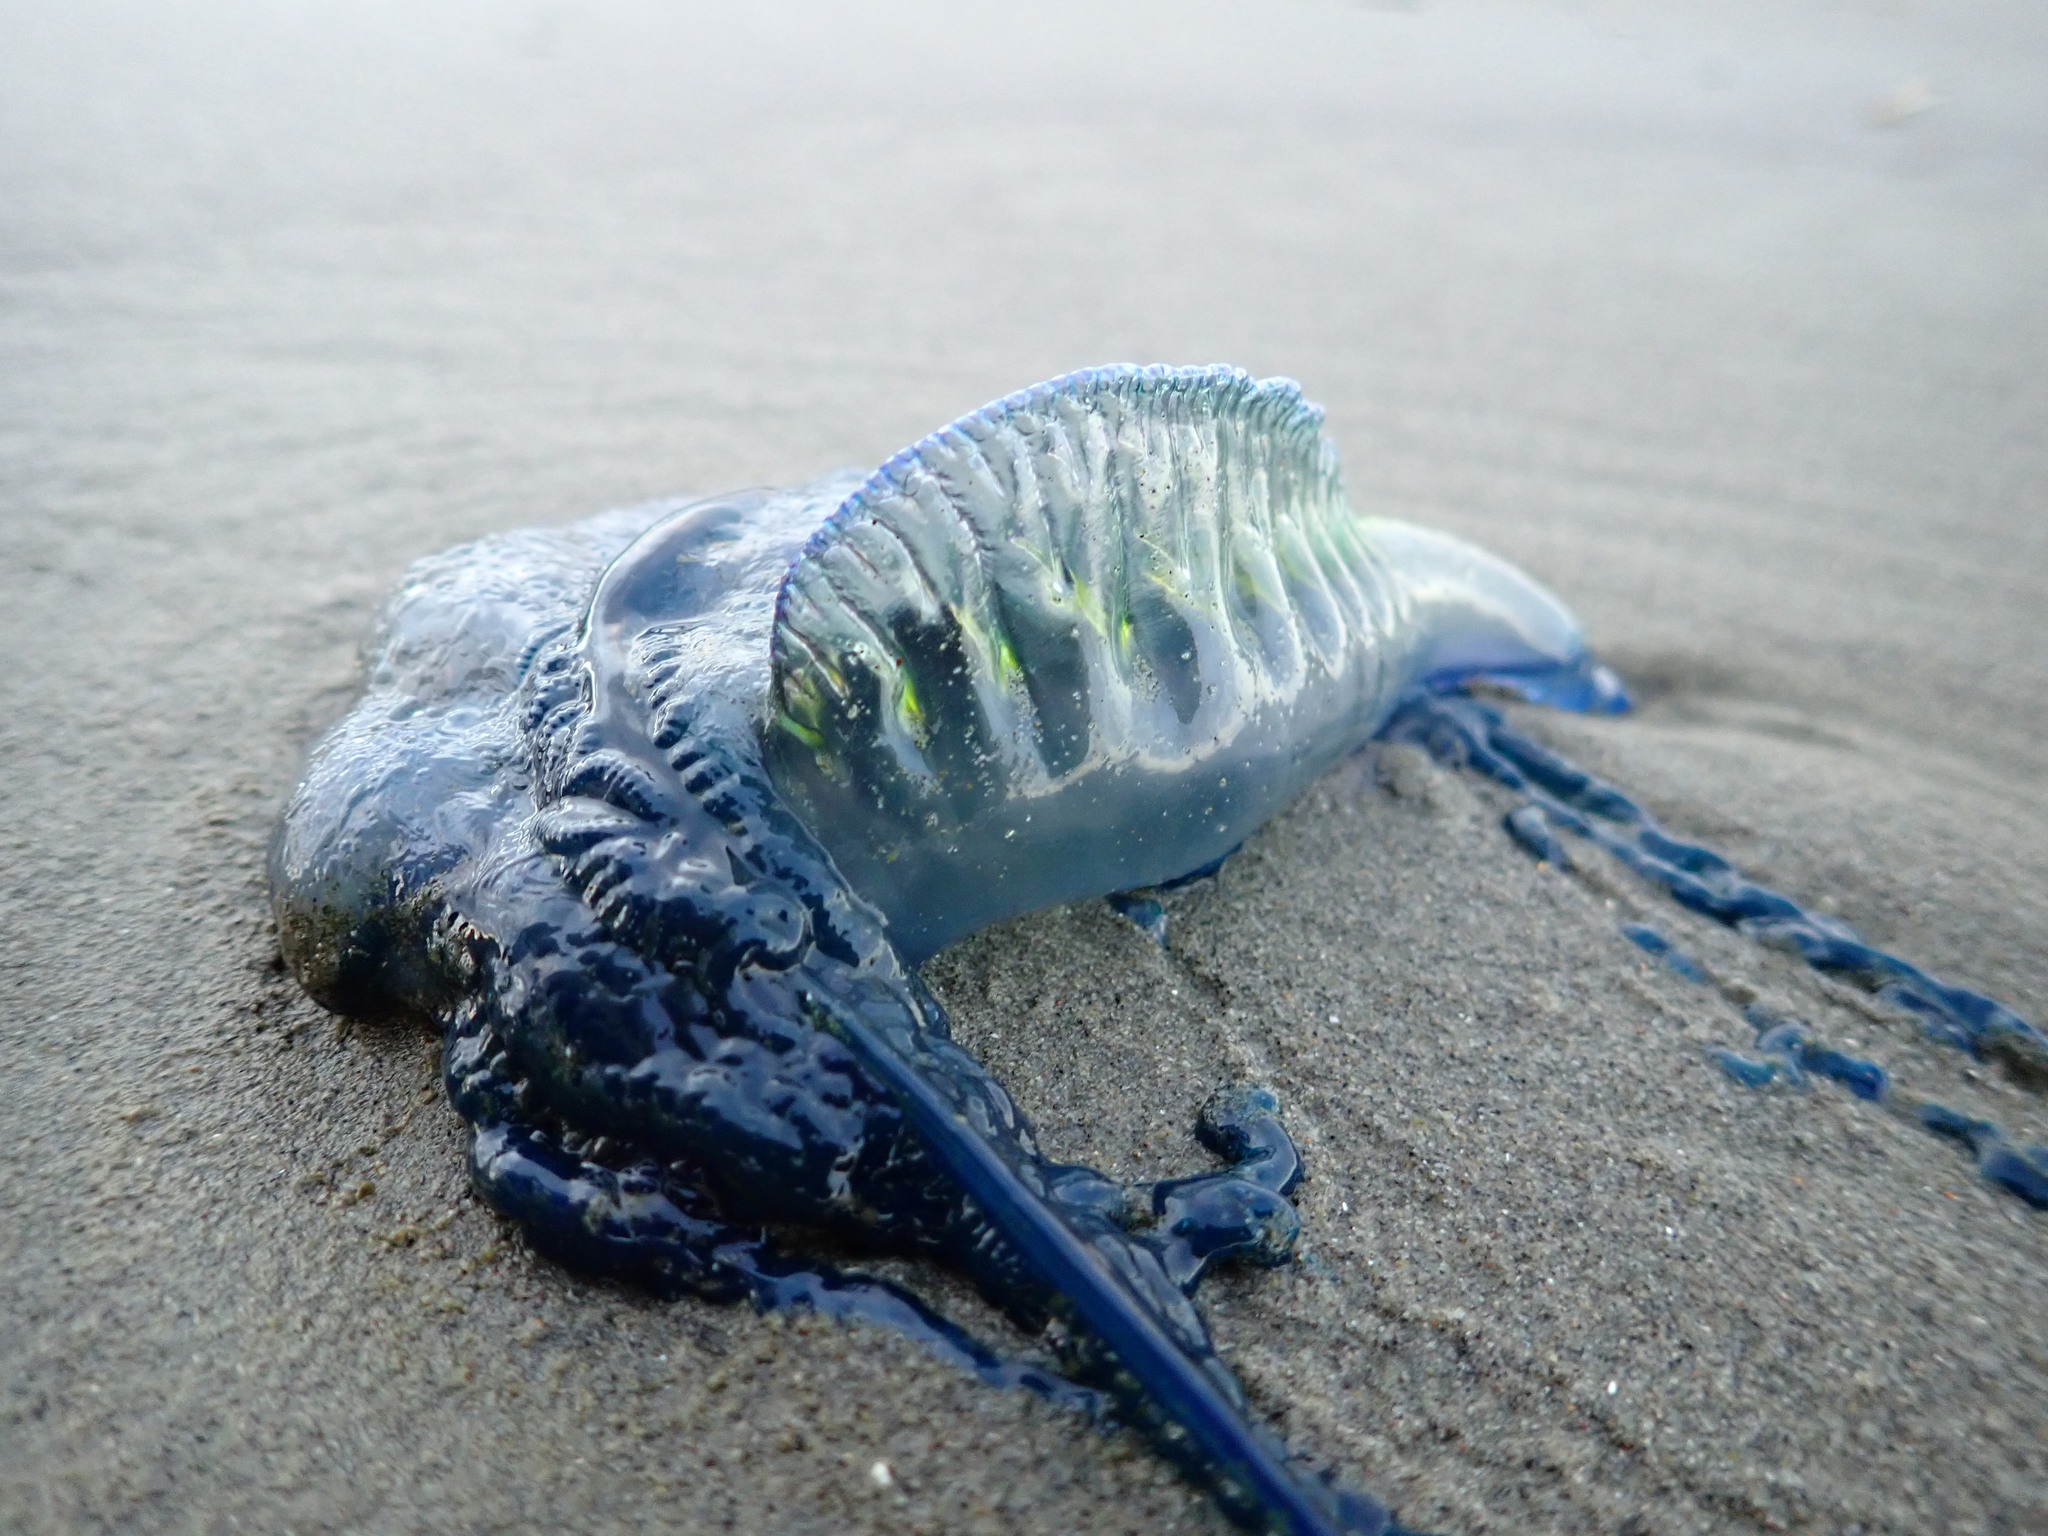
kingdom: Animalia
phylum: Cnidaria
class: Hydrozoa
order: Siphonophorae
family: Physaliidae
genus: Physalia
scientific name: Physalia physalis
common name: Portuguese man-of-war
